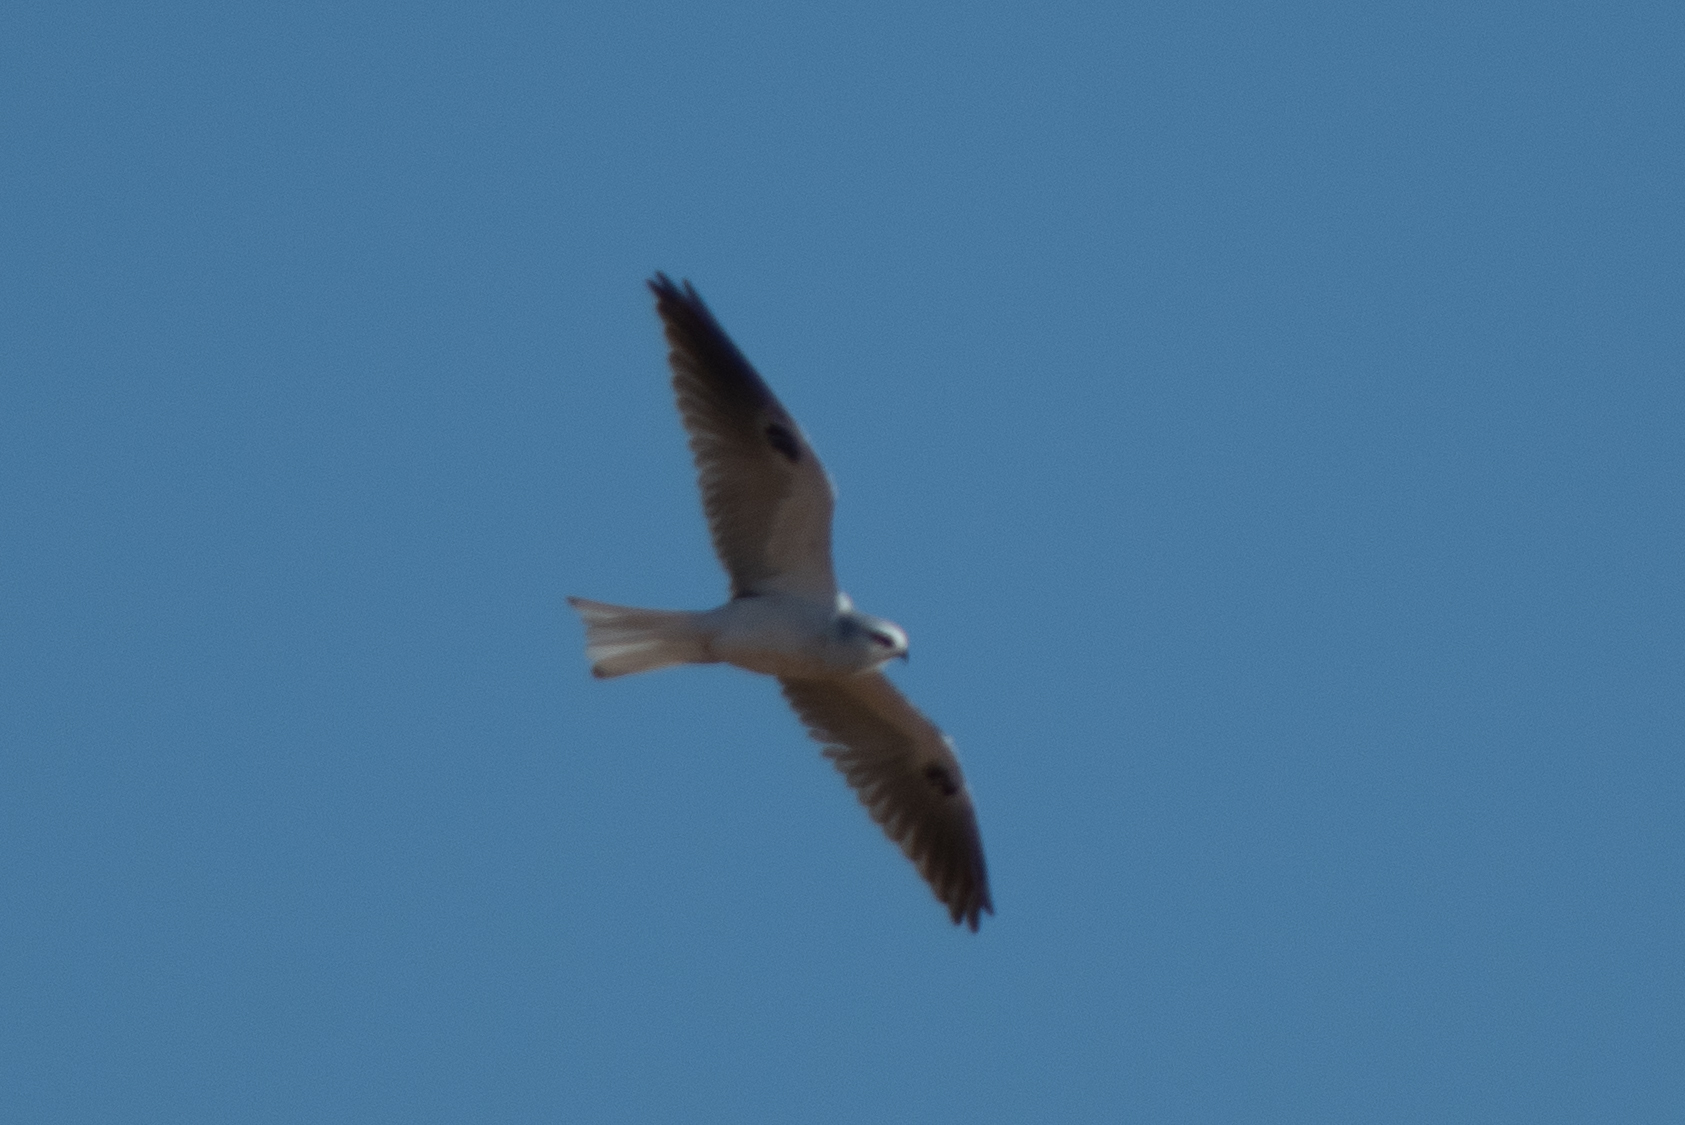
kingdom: Animalia
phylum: Chordata
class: Aves
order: Accipitriformes
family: Accipitridae
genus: Elanus
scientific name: Elanus leucurus
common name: White-tailed kite
